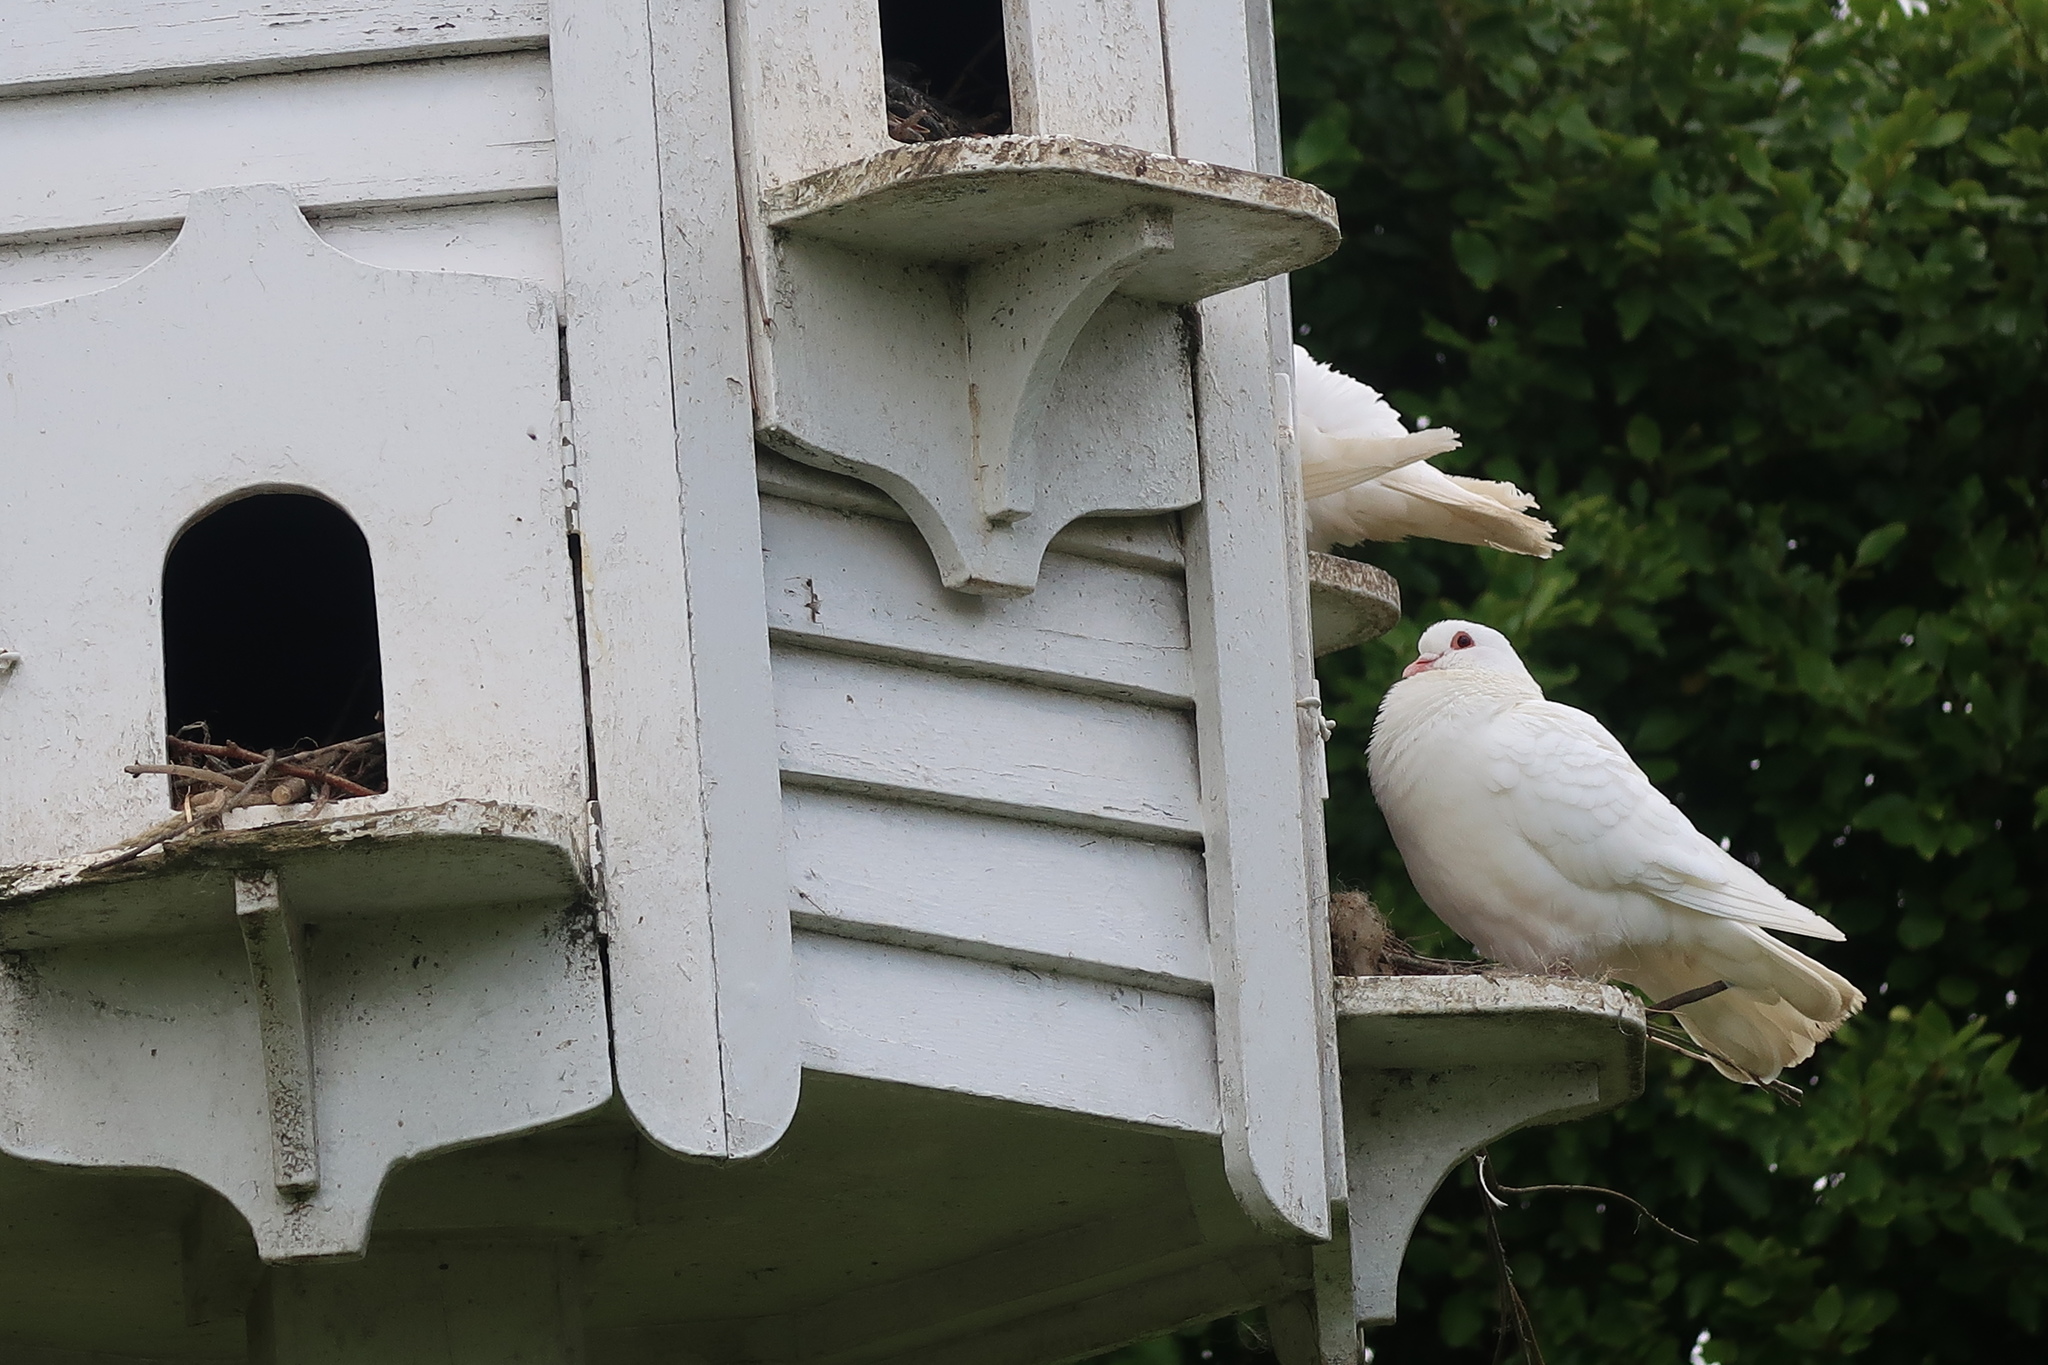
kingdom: Animalia
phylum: Chordata
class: Aves
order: Columbiformes
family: Columbidae
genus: Columba
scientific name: Columba livia
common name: Rock pigeon
